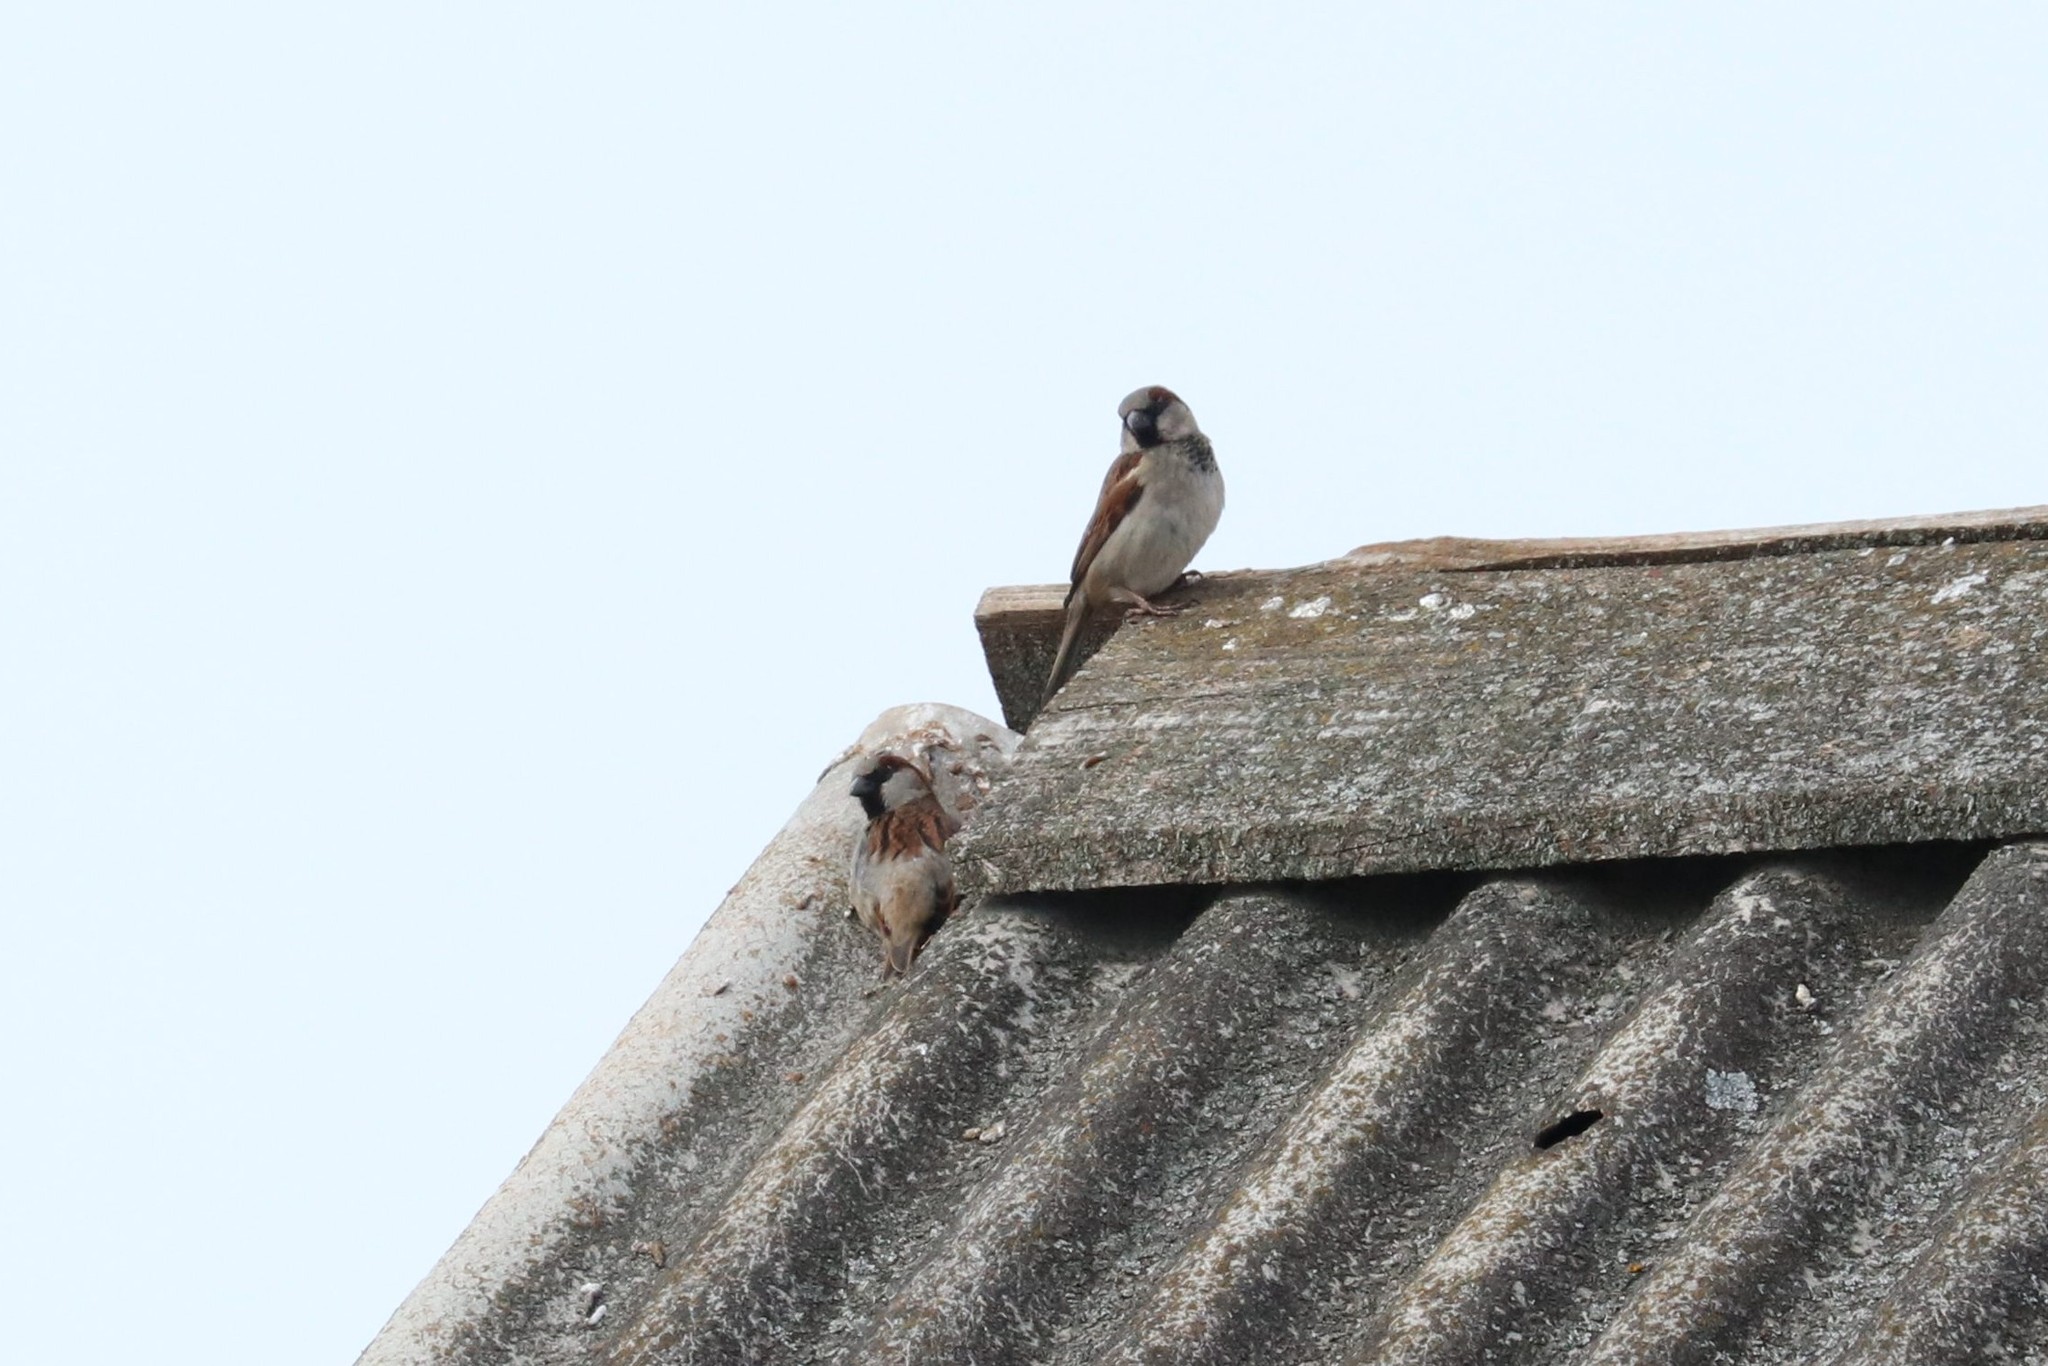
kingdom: Animalia
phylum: Chordata
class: Aves
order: Passeriformes
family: Passeridae
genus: Passer
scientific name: Passer domesticus
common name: House sparrow
